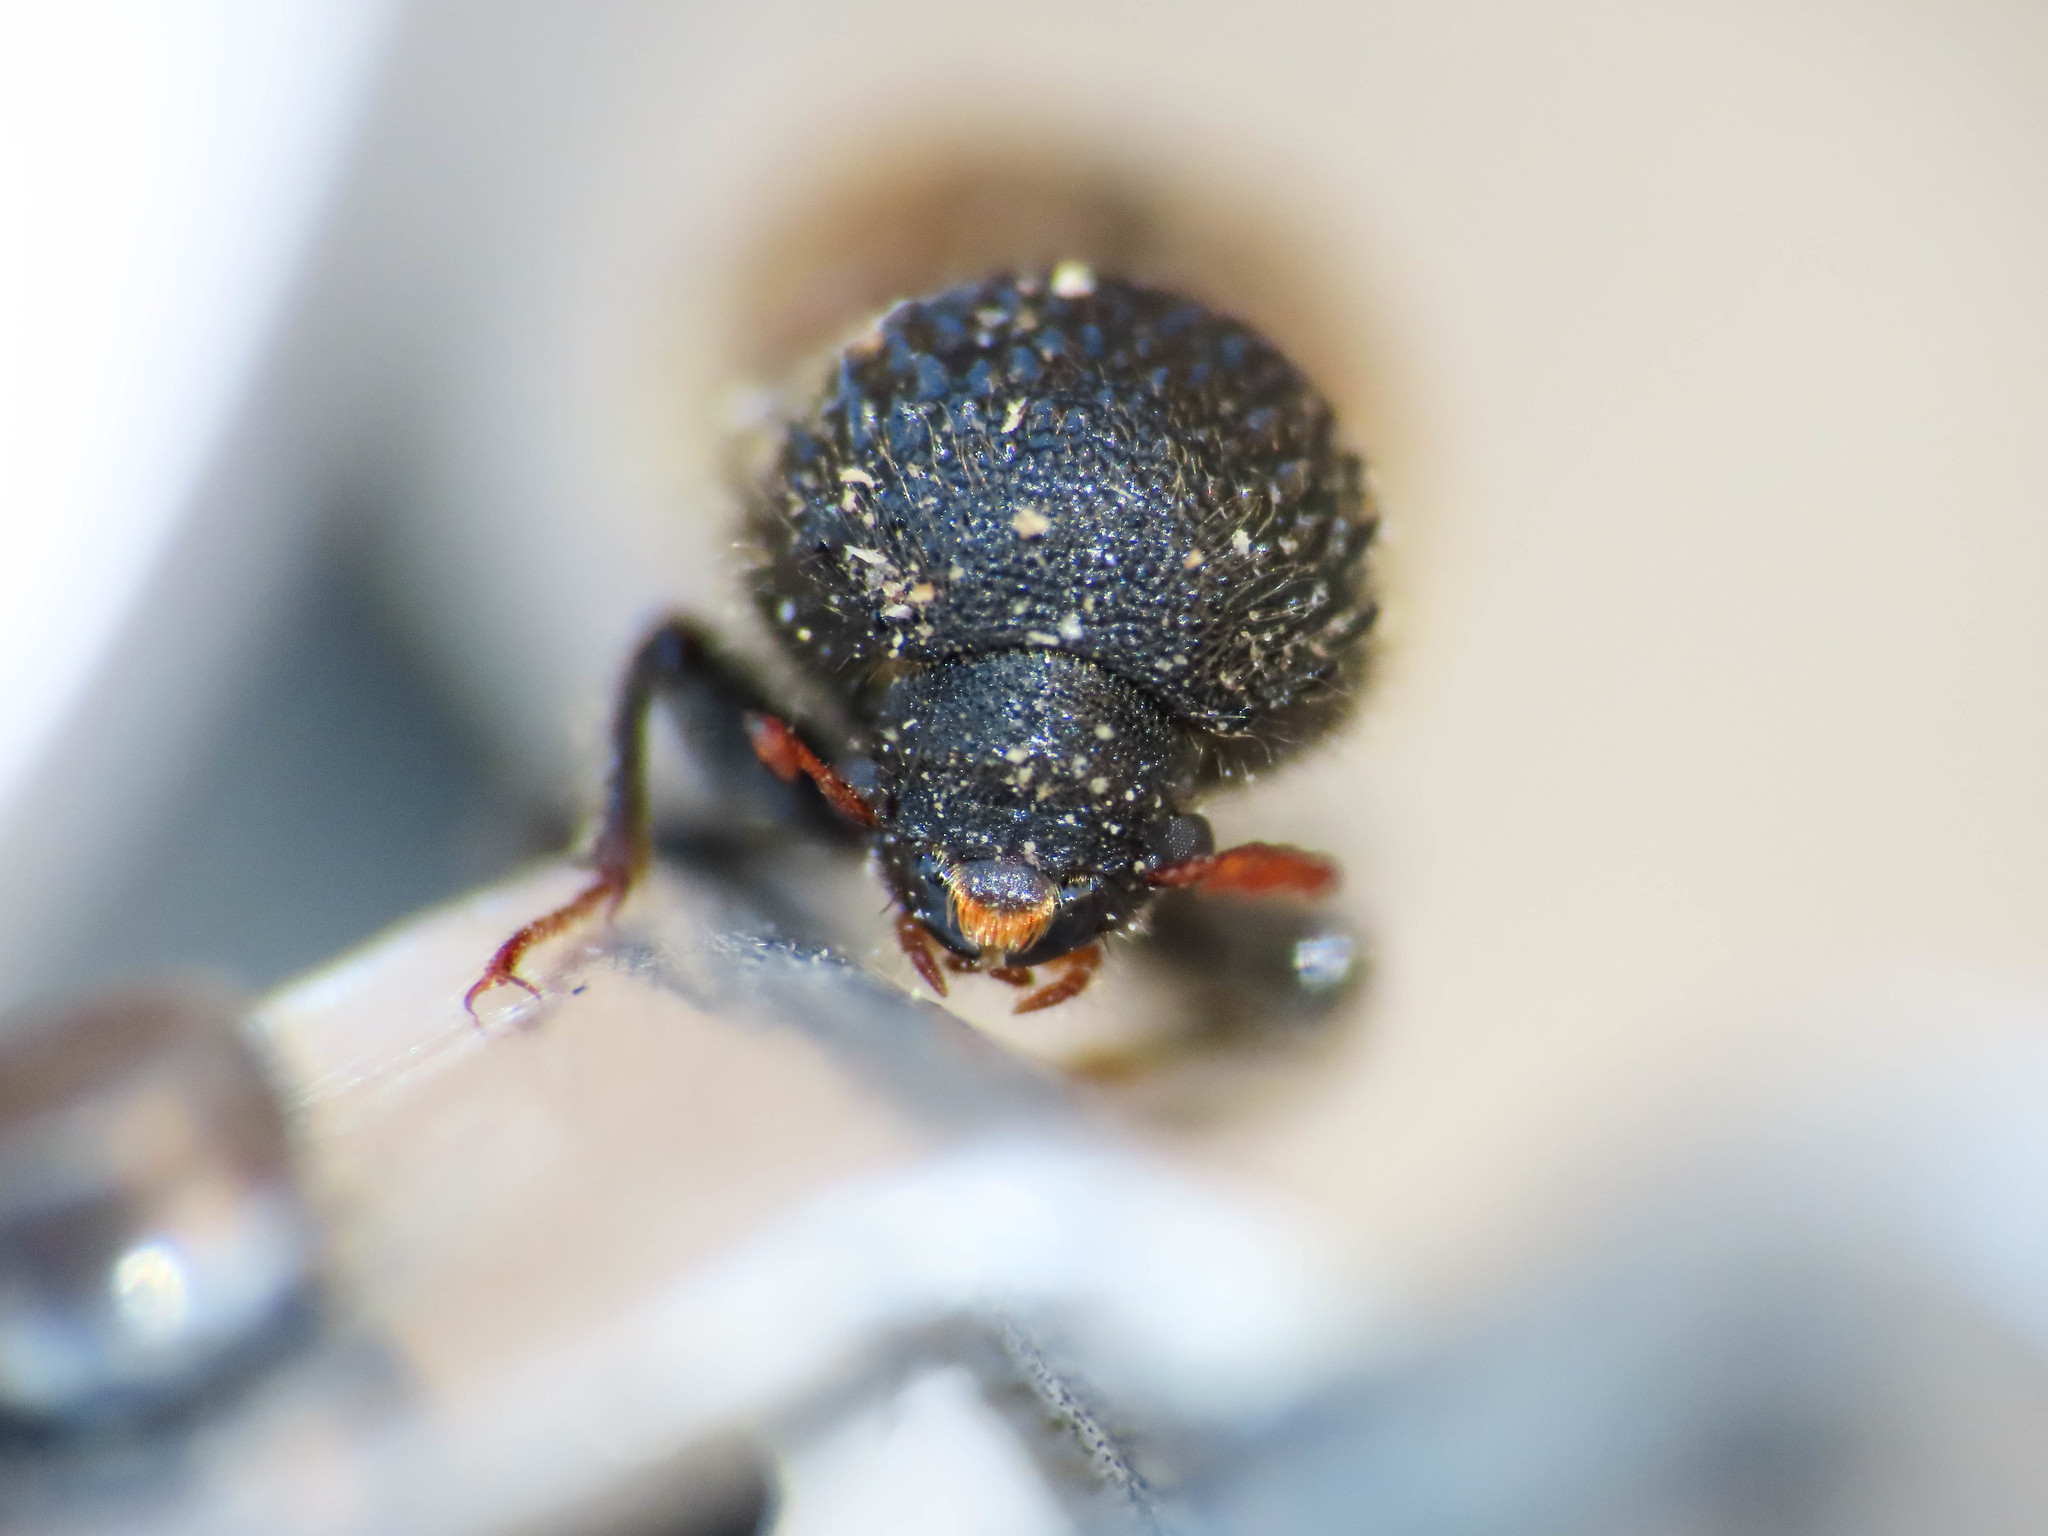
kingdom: Animalia
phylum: Arthropoda
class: Insecta
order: Coleoptera
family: Bostrichidae
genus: Sinoxylon
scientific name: Sinoxylon sexdentatum
